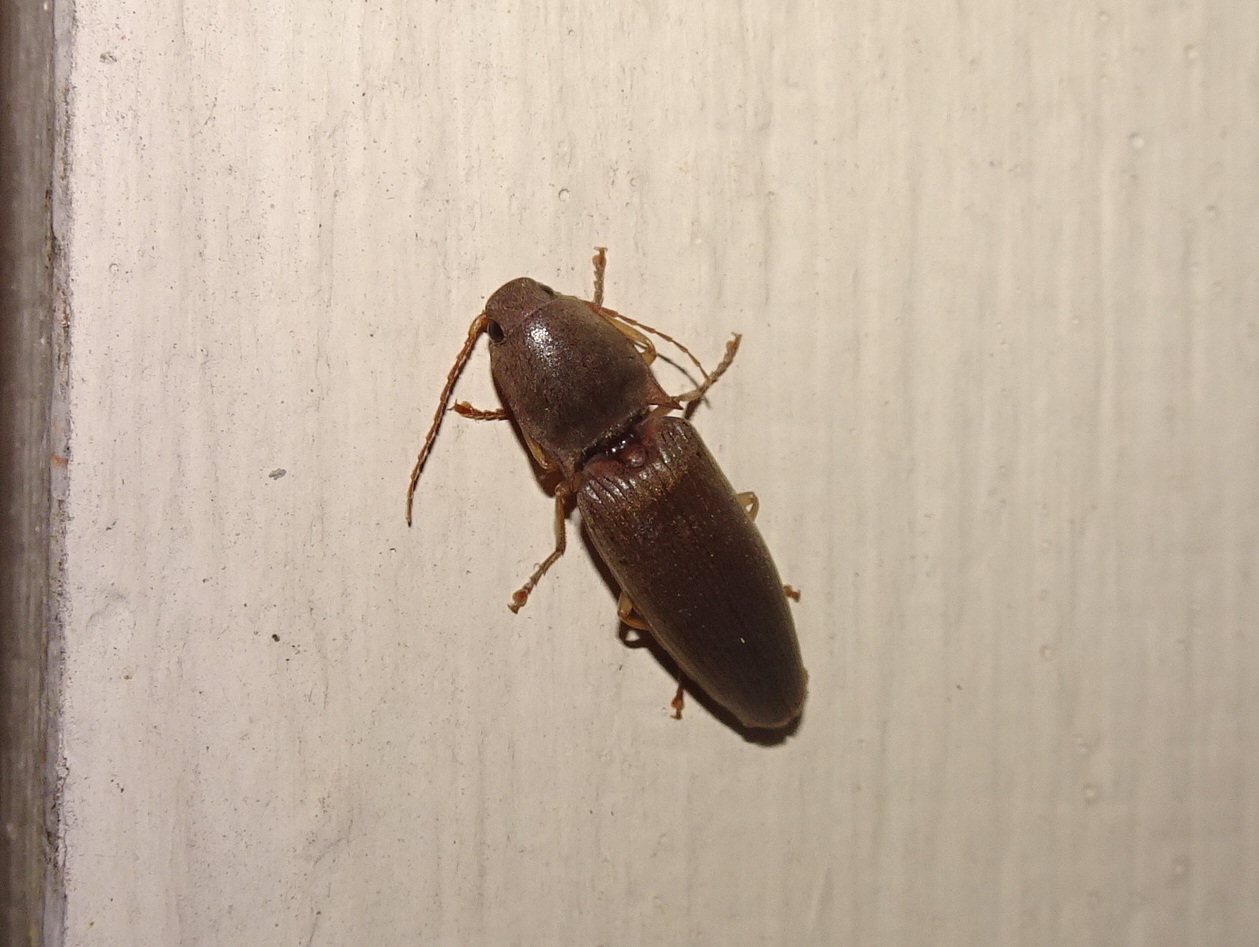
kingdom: Animalia
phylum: Arthropoda
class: Insecta
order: Coleoptera
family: Elateridae
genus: Monocrepidius
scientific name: Monocrepidius lividus
